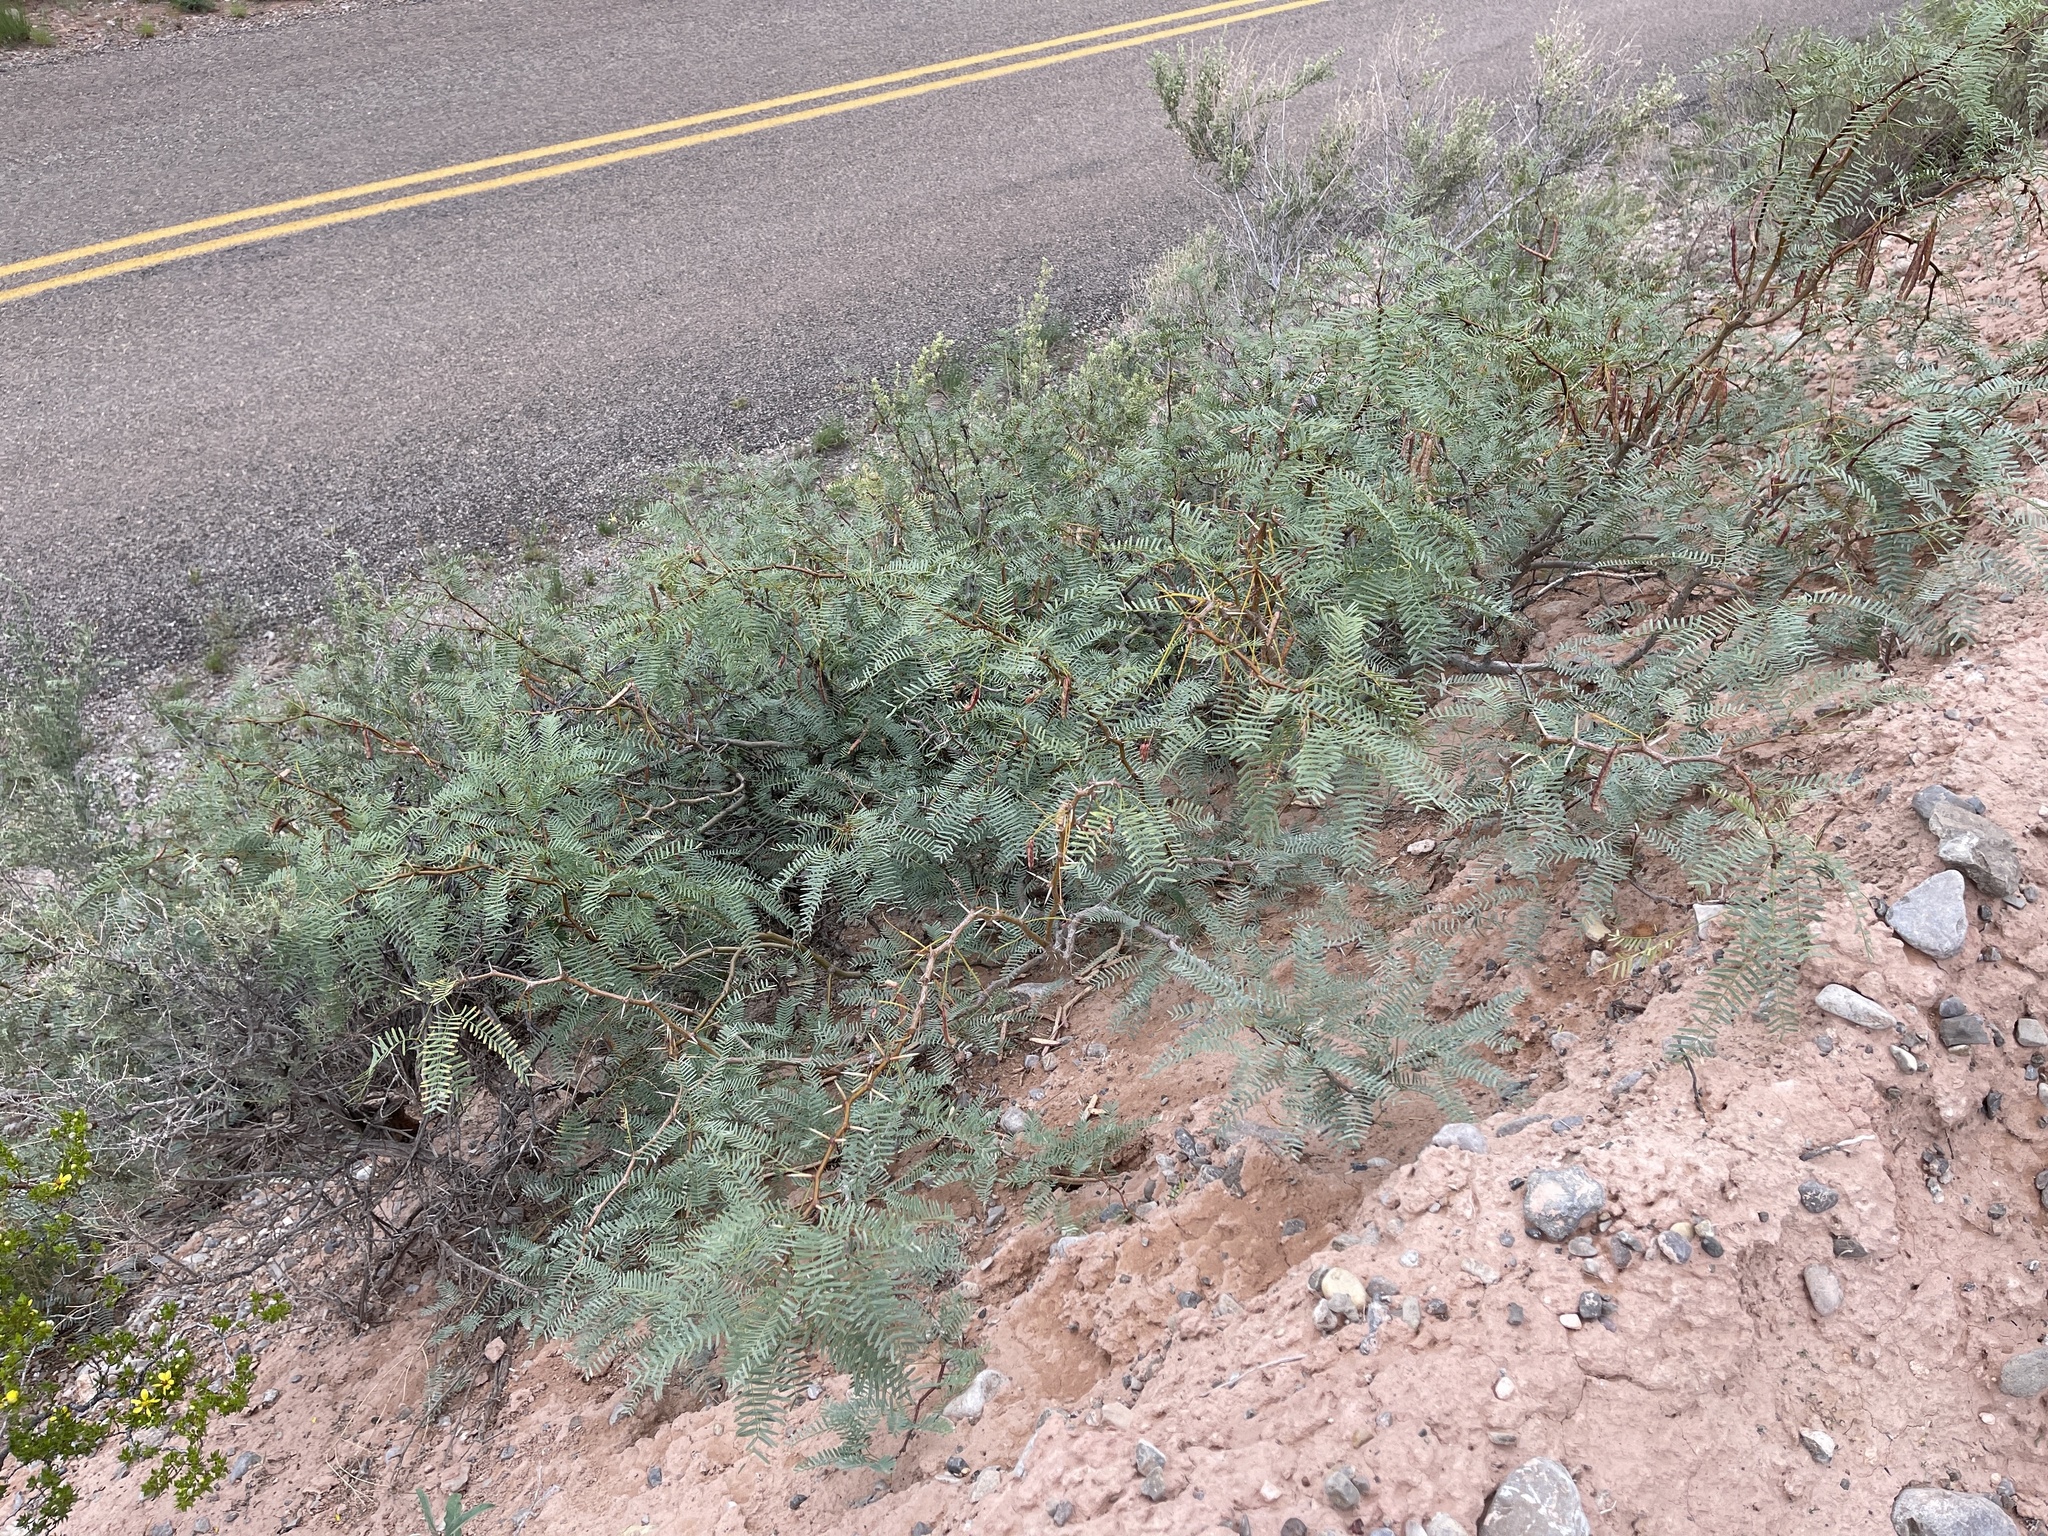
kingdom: Plantae
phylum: Tracheophyta
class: Magnoliopsida
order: Fabales
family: Fabaceae
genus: Prosopis
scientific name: Prosopis glandulosa
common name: Honey mesquite
